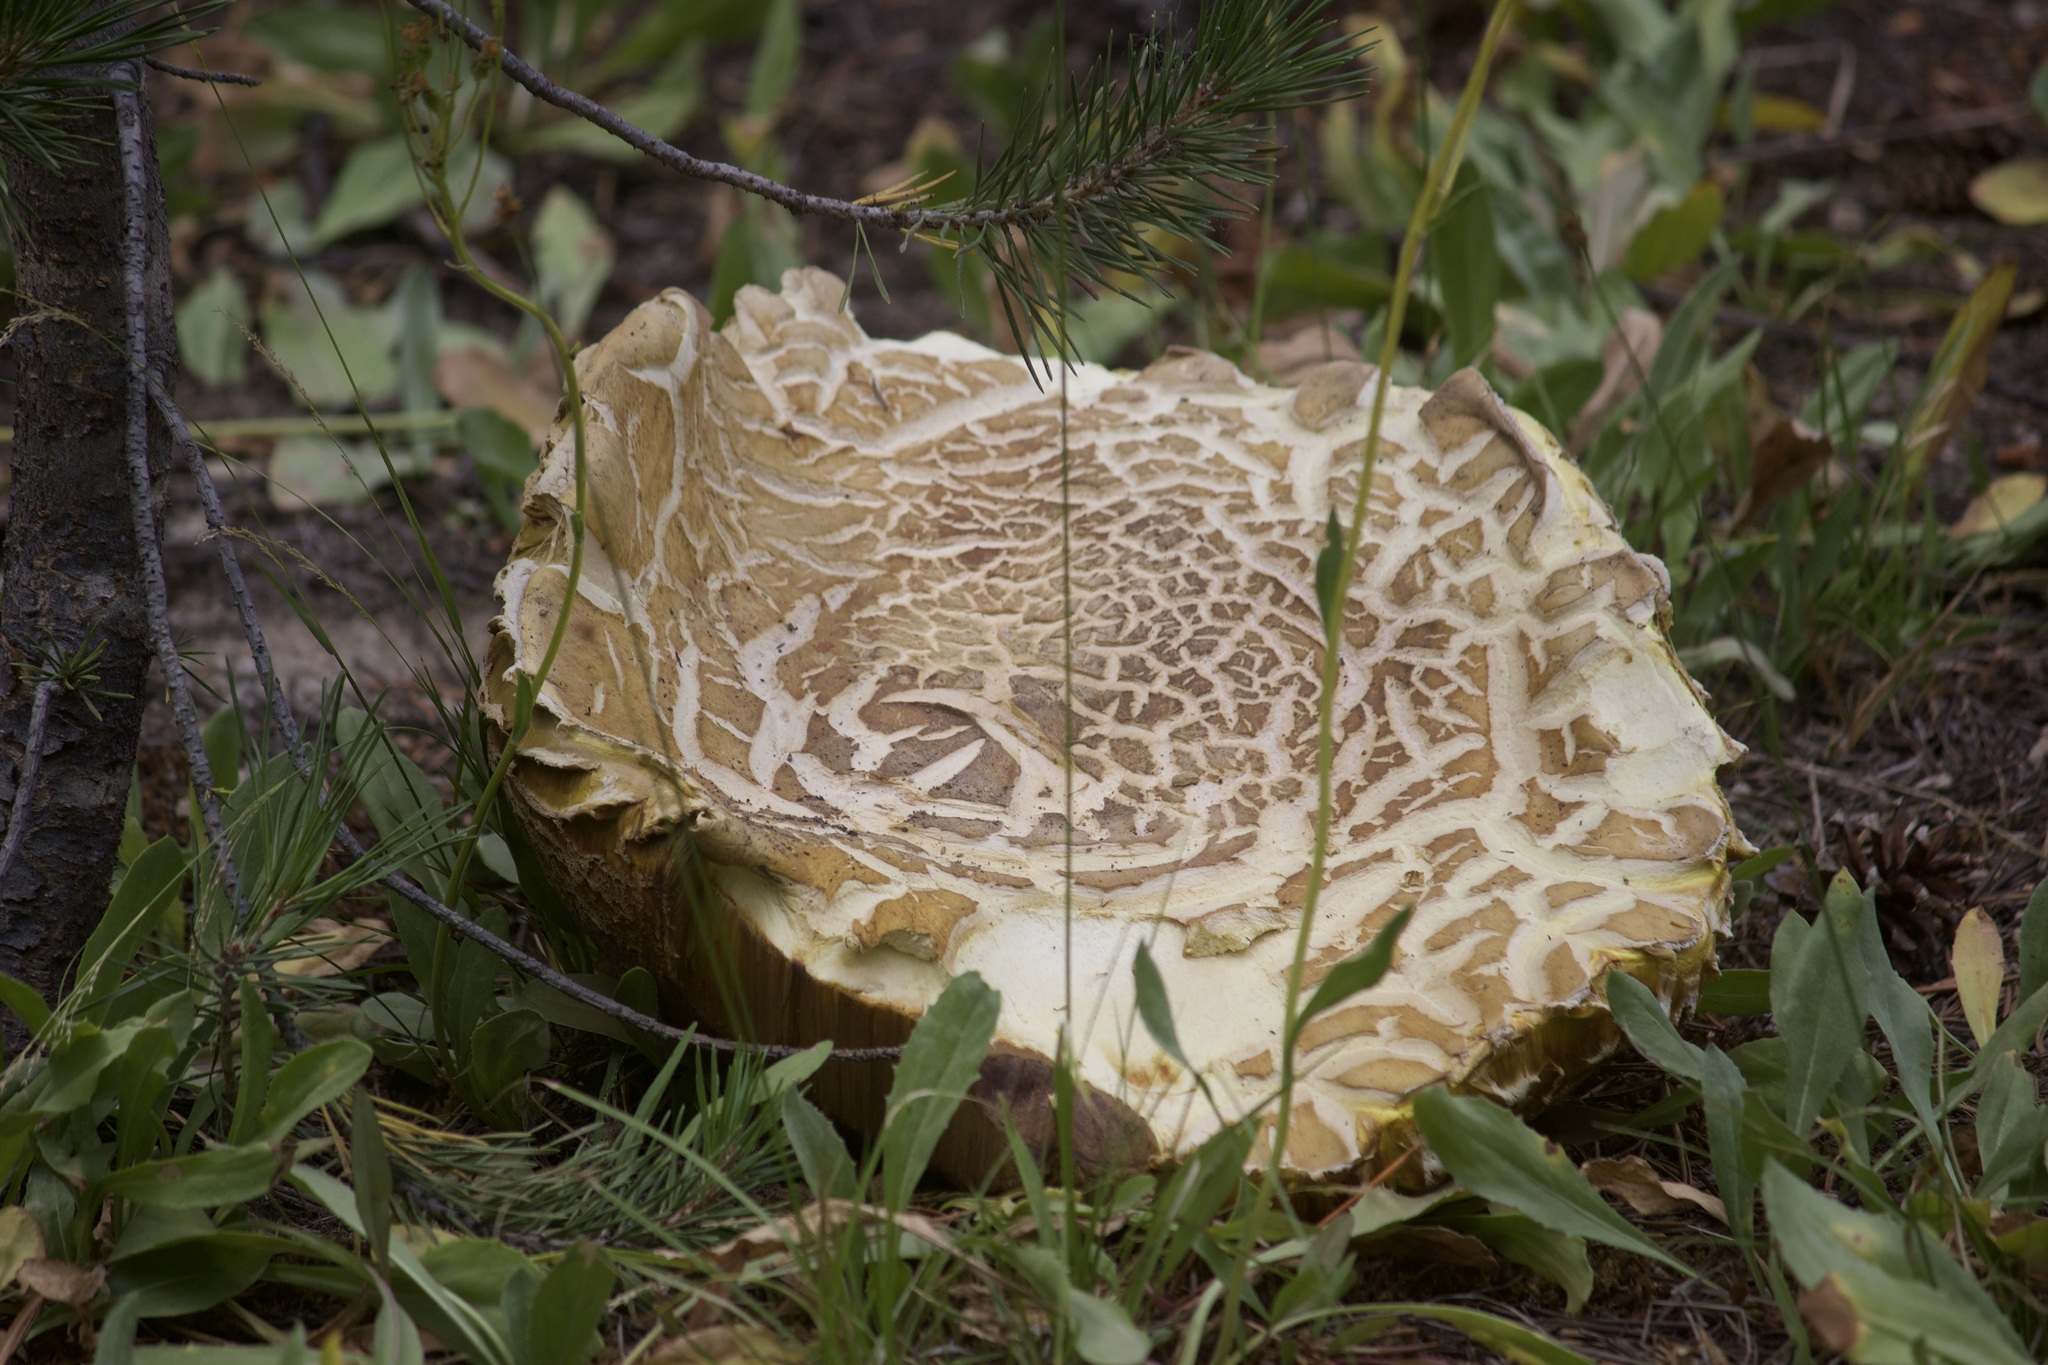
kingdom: Fungi
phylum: Basidiomycota
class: Agaricomycetes
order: Boletales
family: Boletaceae
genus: Boletus
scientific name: Boletus edulis
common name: Cep
